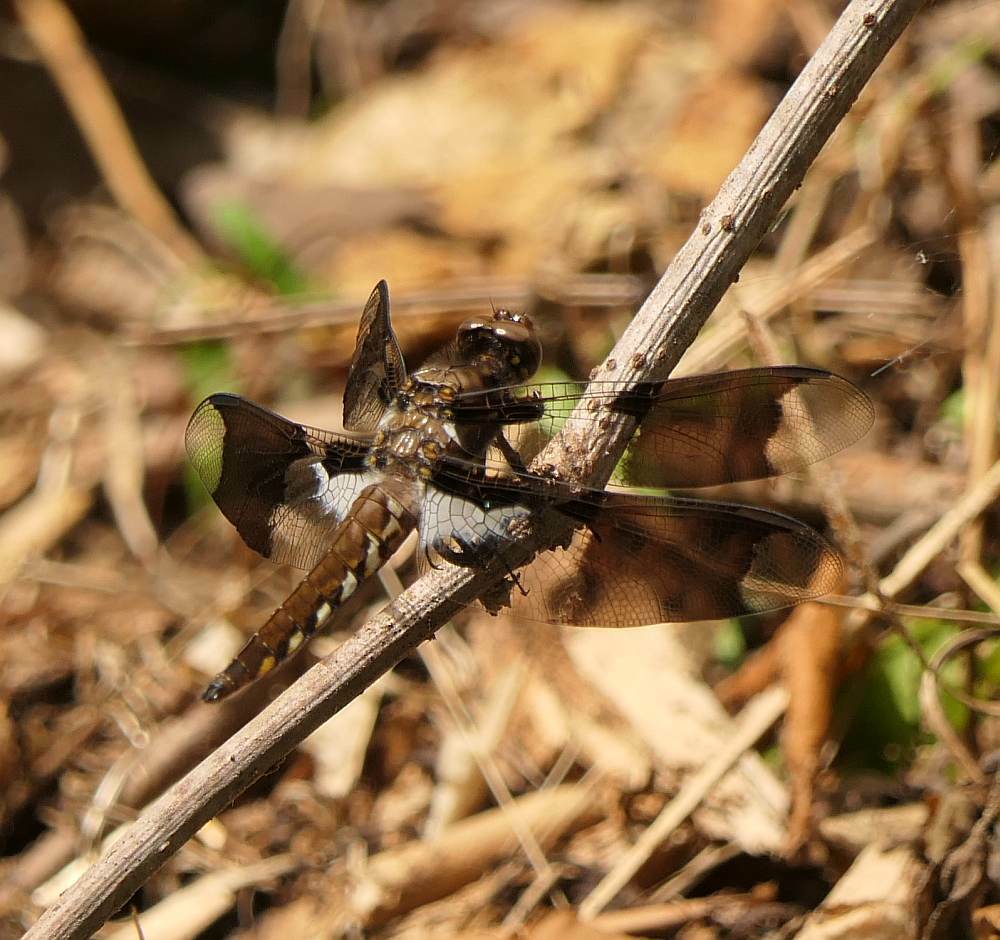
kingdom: Animalia
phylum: Arthropoda
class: Insecta
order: Odonata
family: Libellulidae
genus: Plathemis
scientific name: Plathemis lydia
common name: Common whitetail
